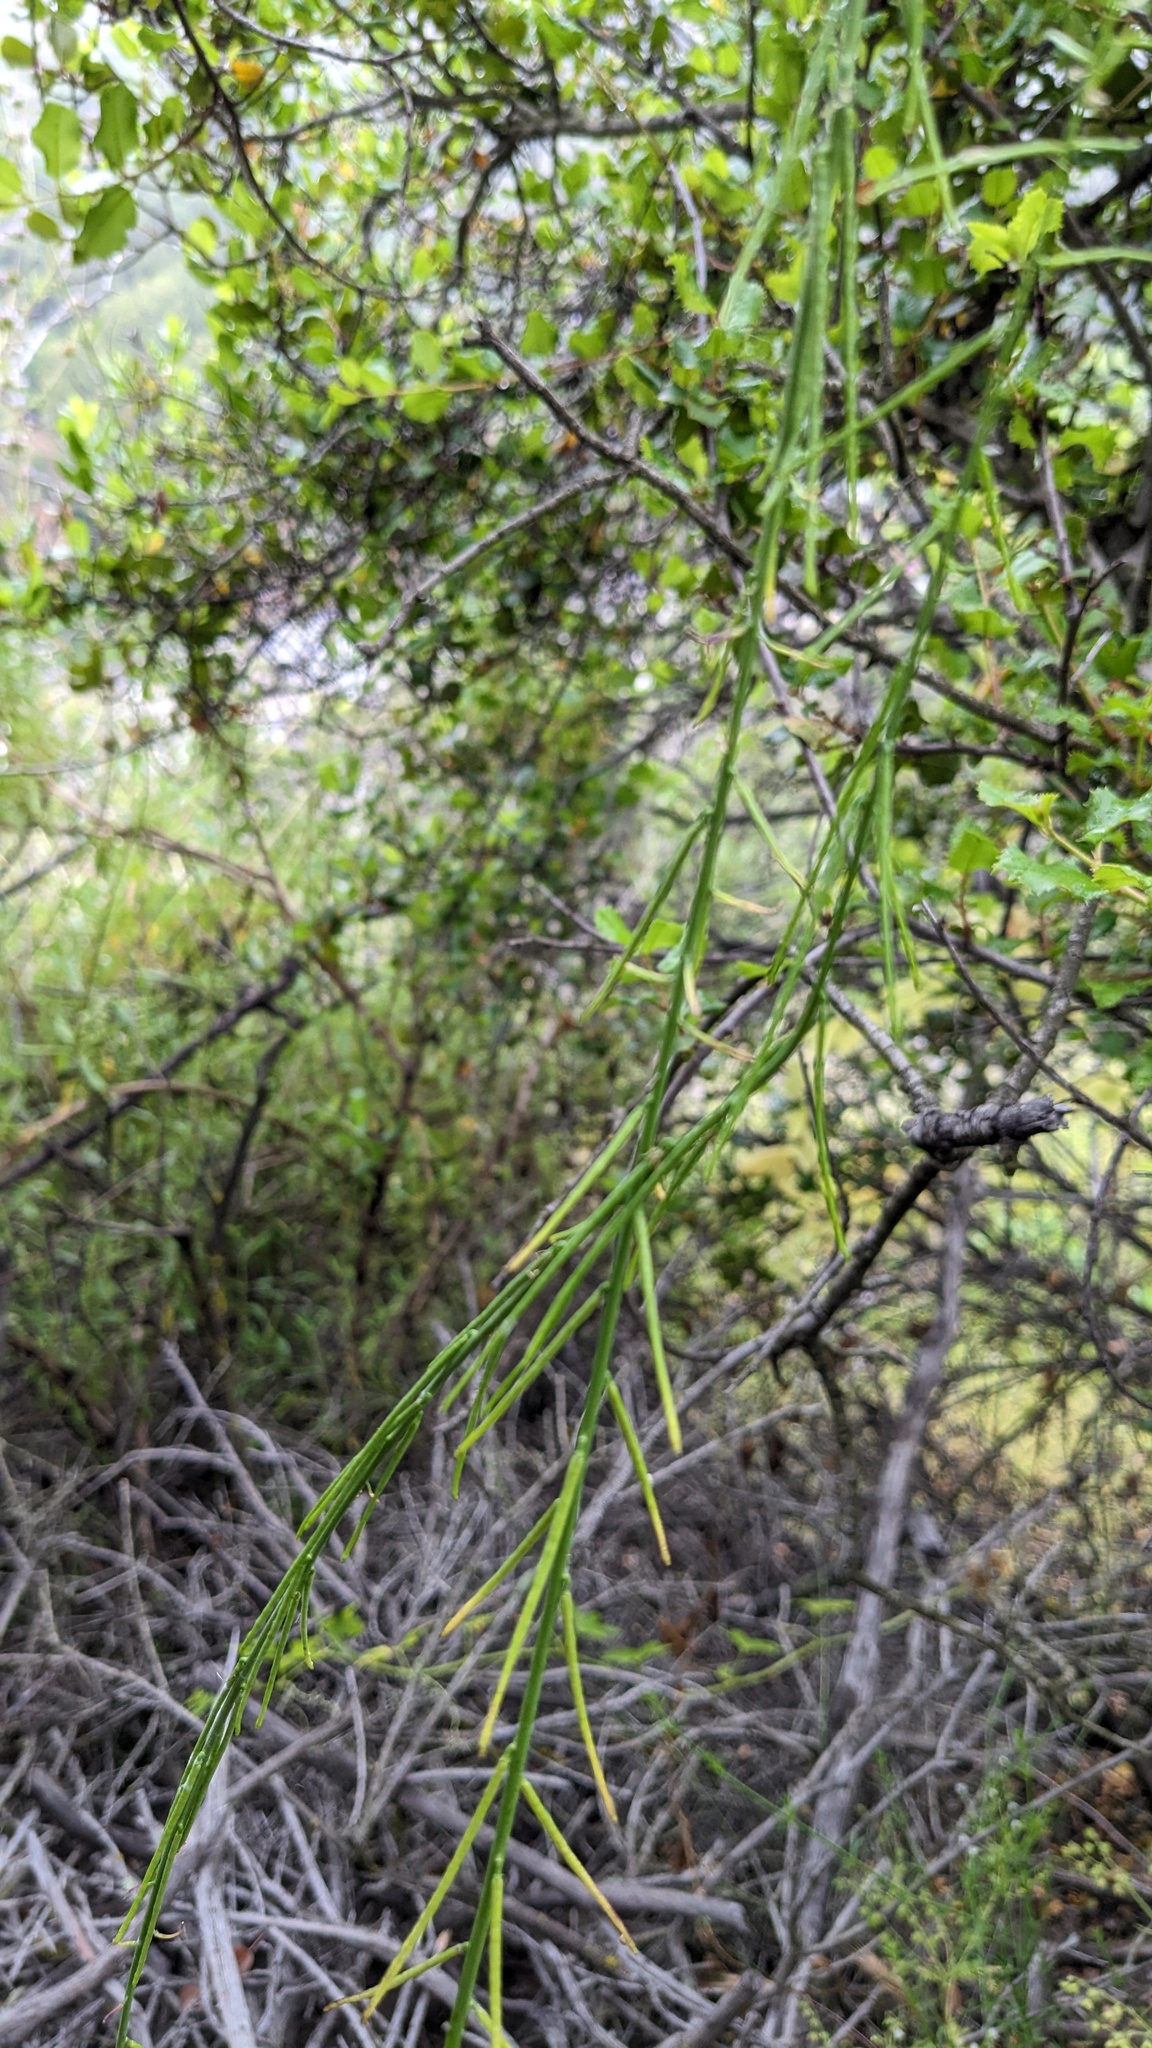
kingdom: Plantae
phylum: Tracheophyta
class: Magnoliopsida
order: Brassicales
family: Brassicaceae
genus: Streptanthus
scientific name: Streptanthus lasiophyllus
